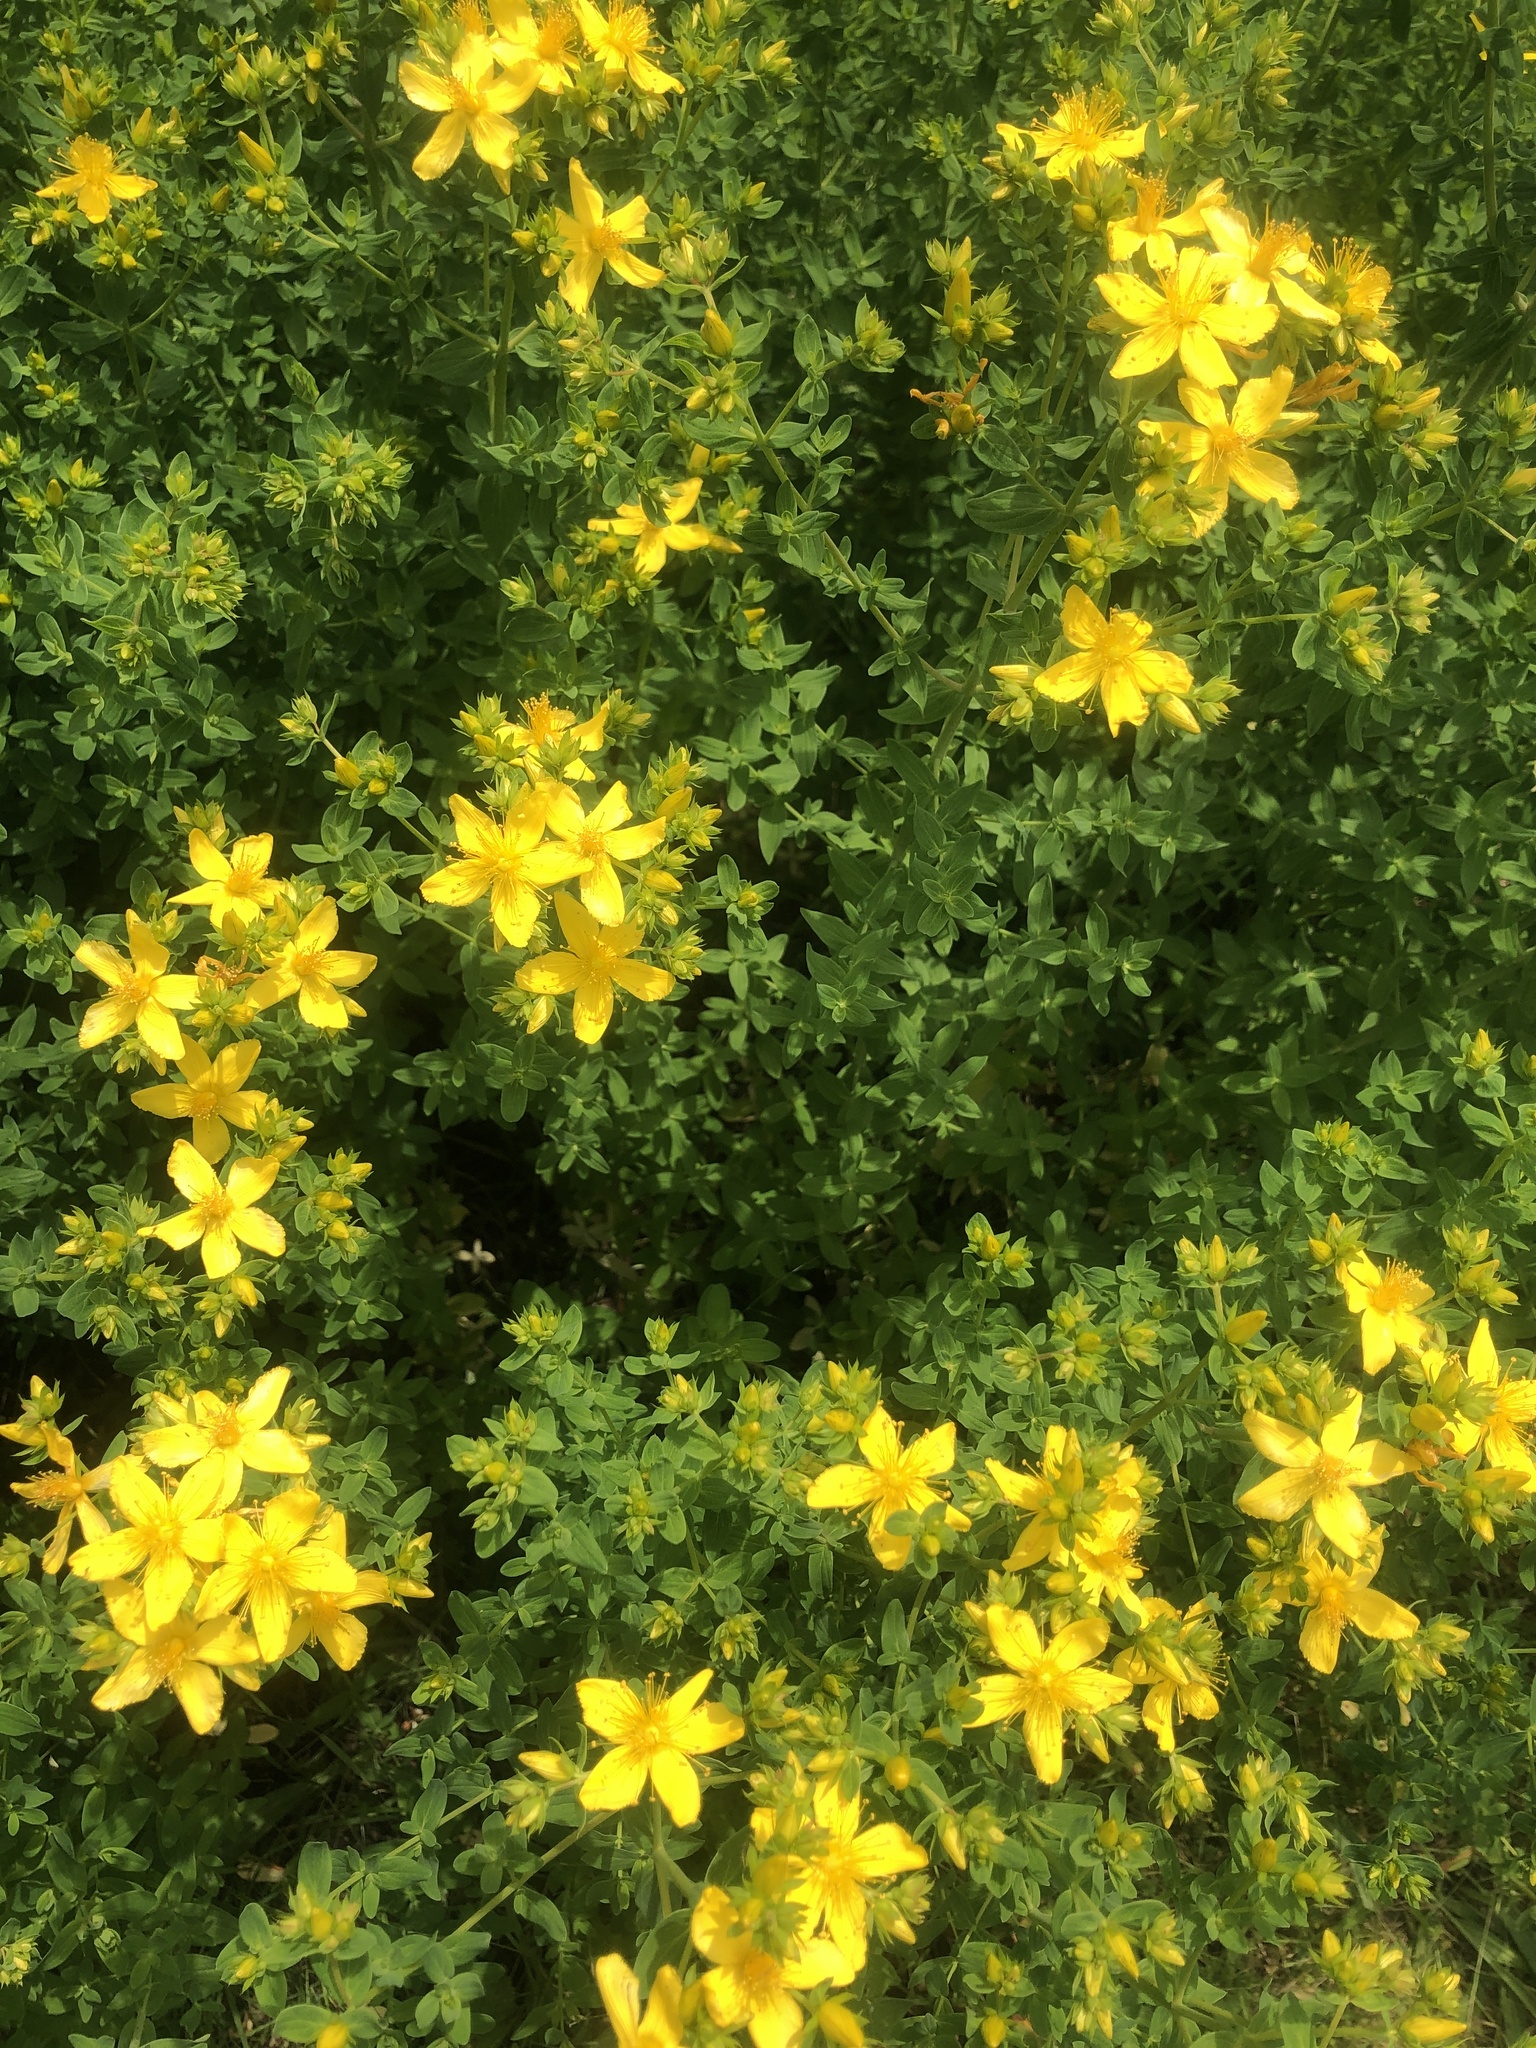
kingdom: Plantae
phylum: Tracheophyta
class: Magnoliopsida
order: Malpighiales
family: Hypericaceae
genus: Hypericum
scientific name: Hypericum perforatum
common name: Common st. johnswort
